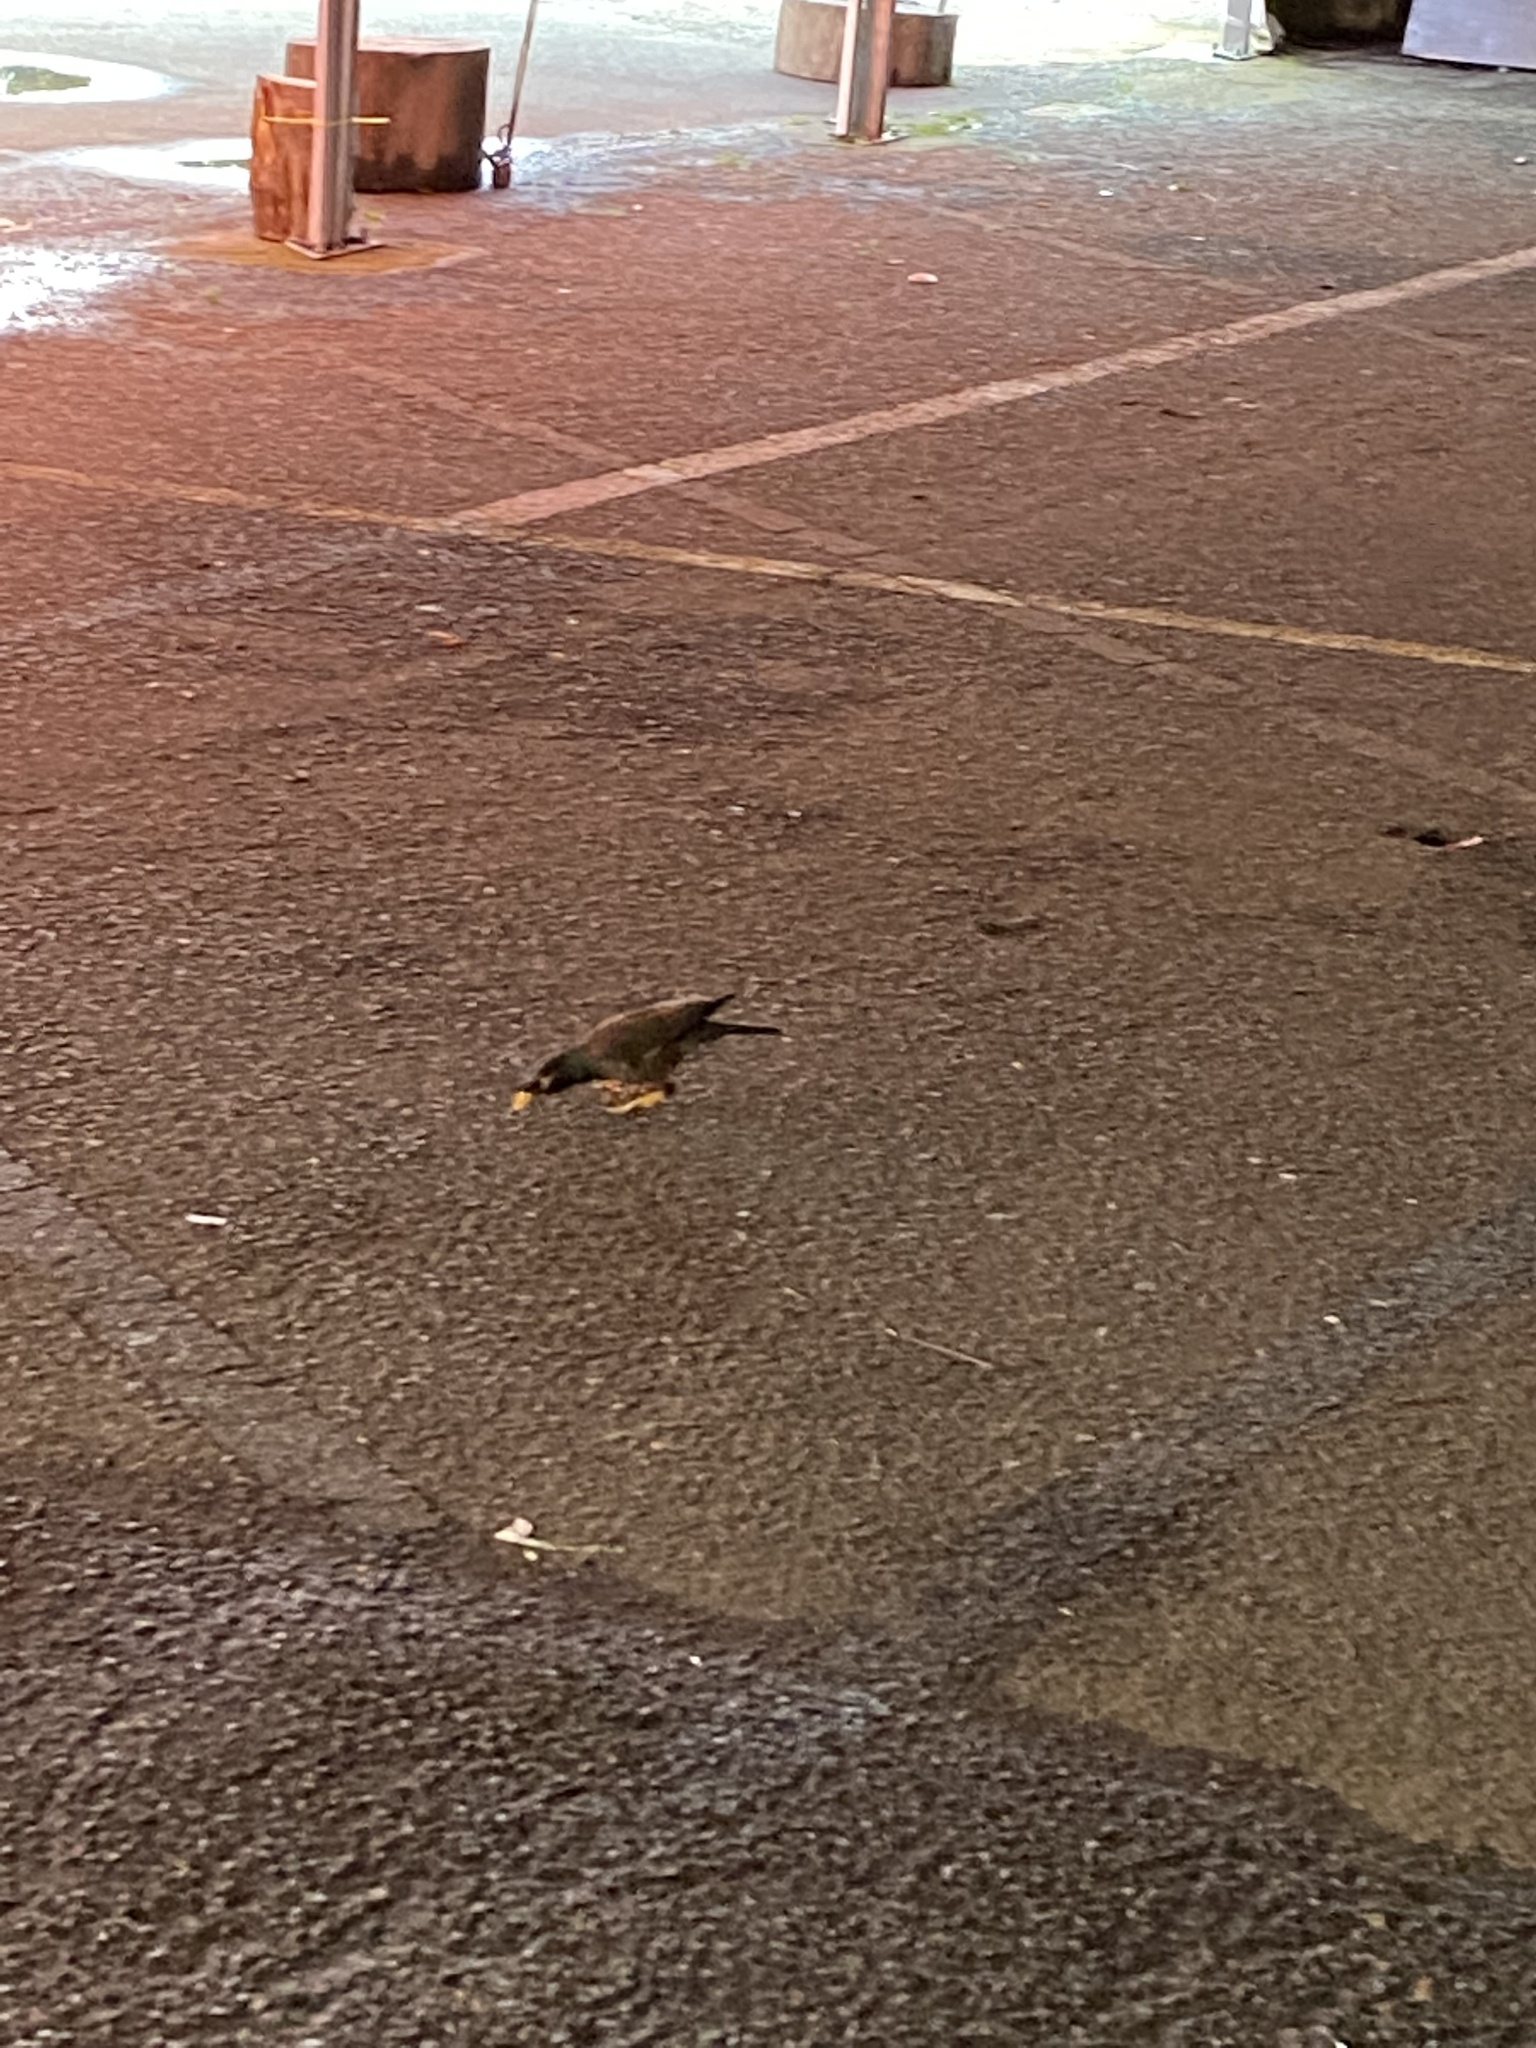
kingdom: Animalia
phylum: Chordata
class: Aves
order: Passeriformes
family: Sturnidae
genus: Acridotheres
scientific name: Acridotheres tristis
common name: Common myna
